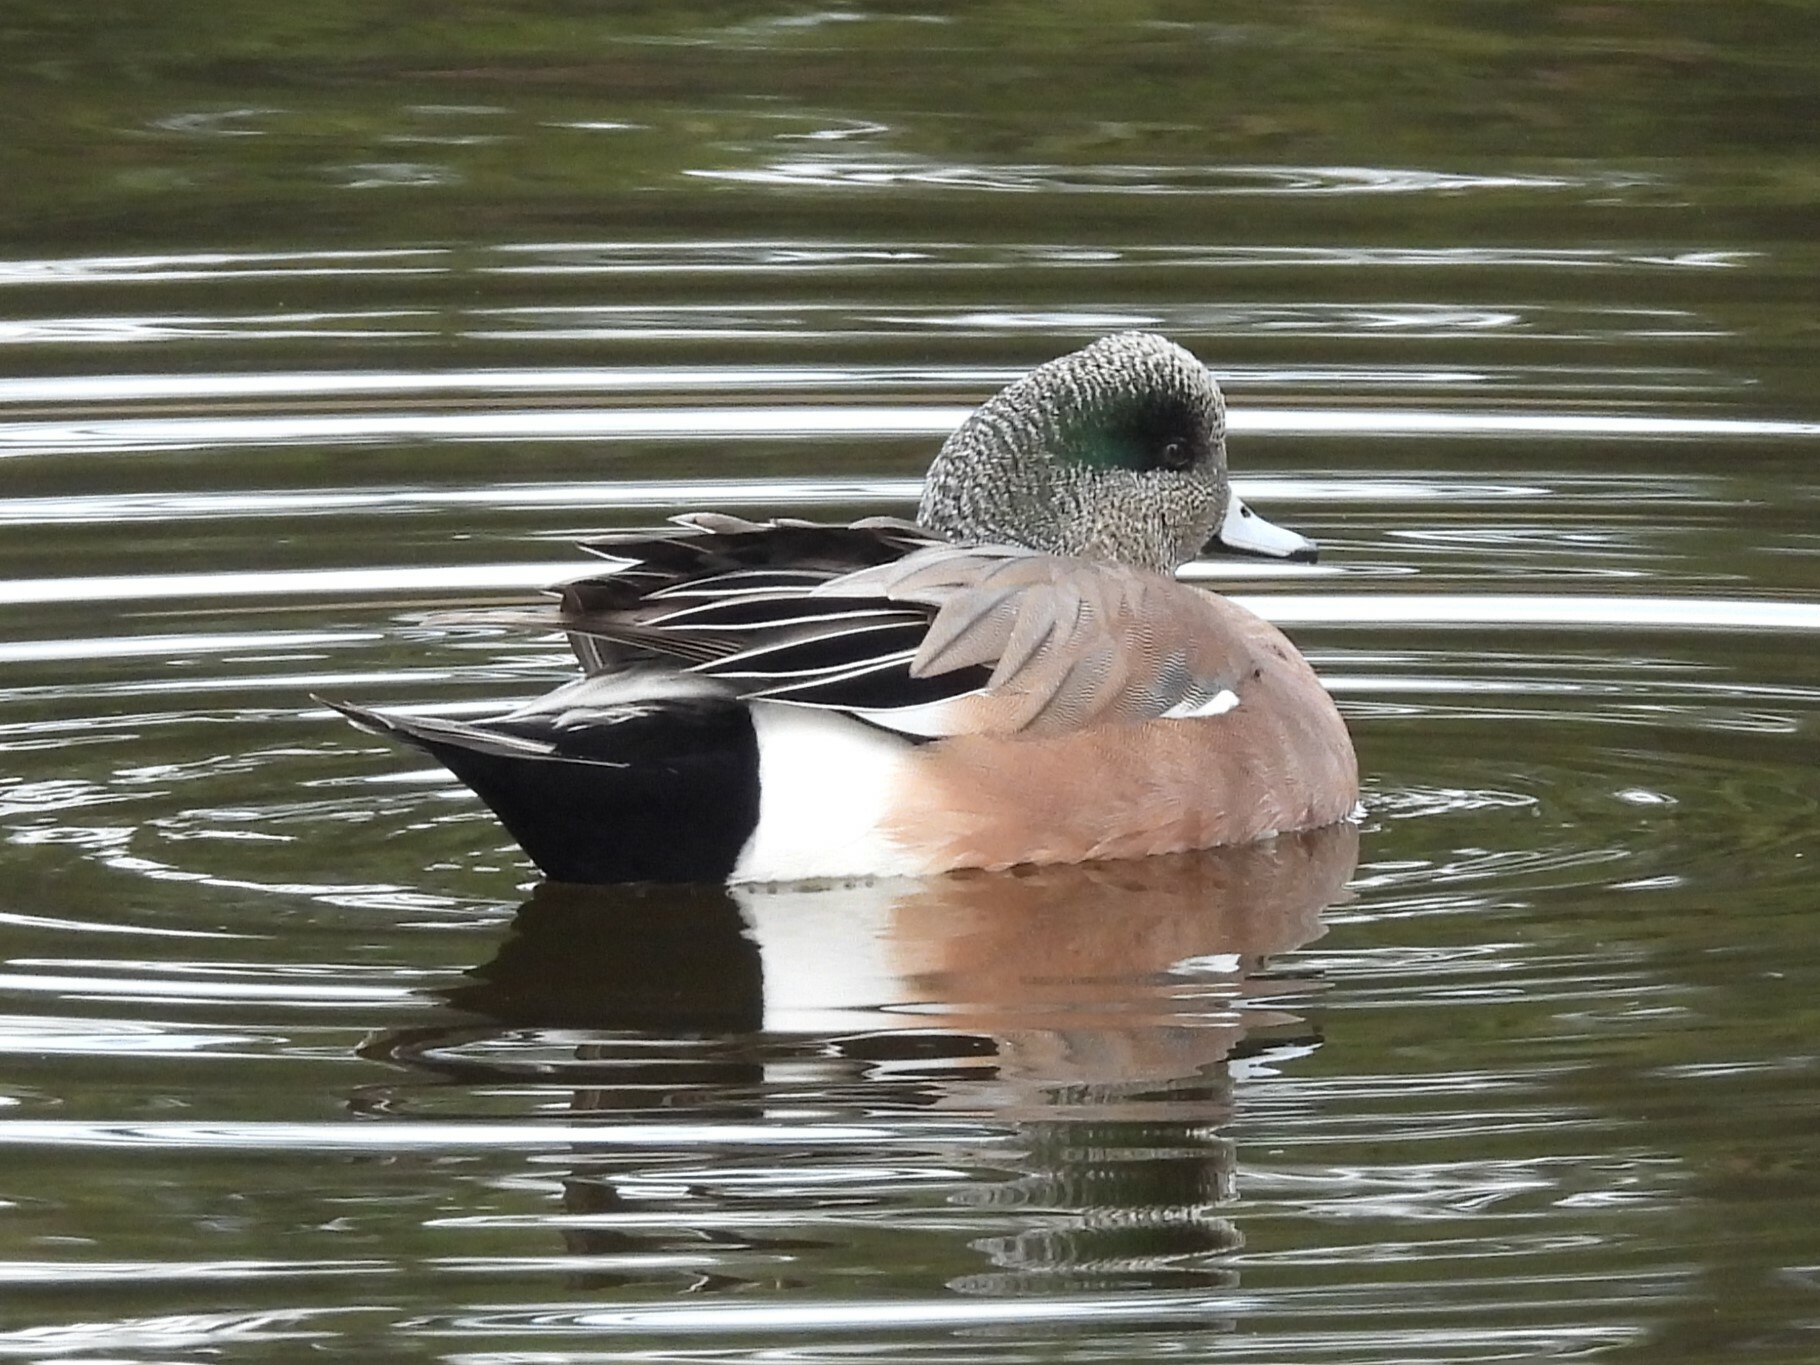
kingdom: Animalia
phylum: Chordata
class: Aves
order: Anseriformes
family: Anatidae
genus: Mareca
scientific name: Mareca americana
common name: American wigeon
